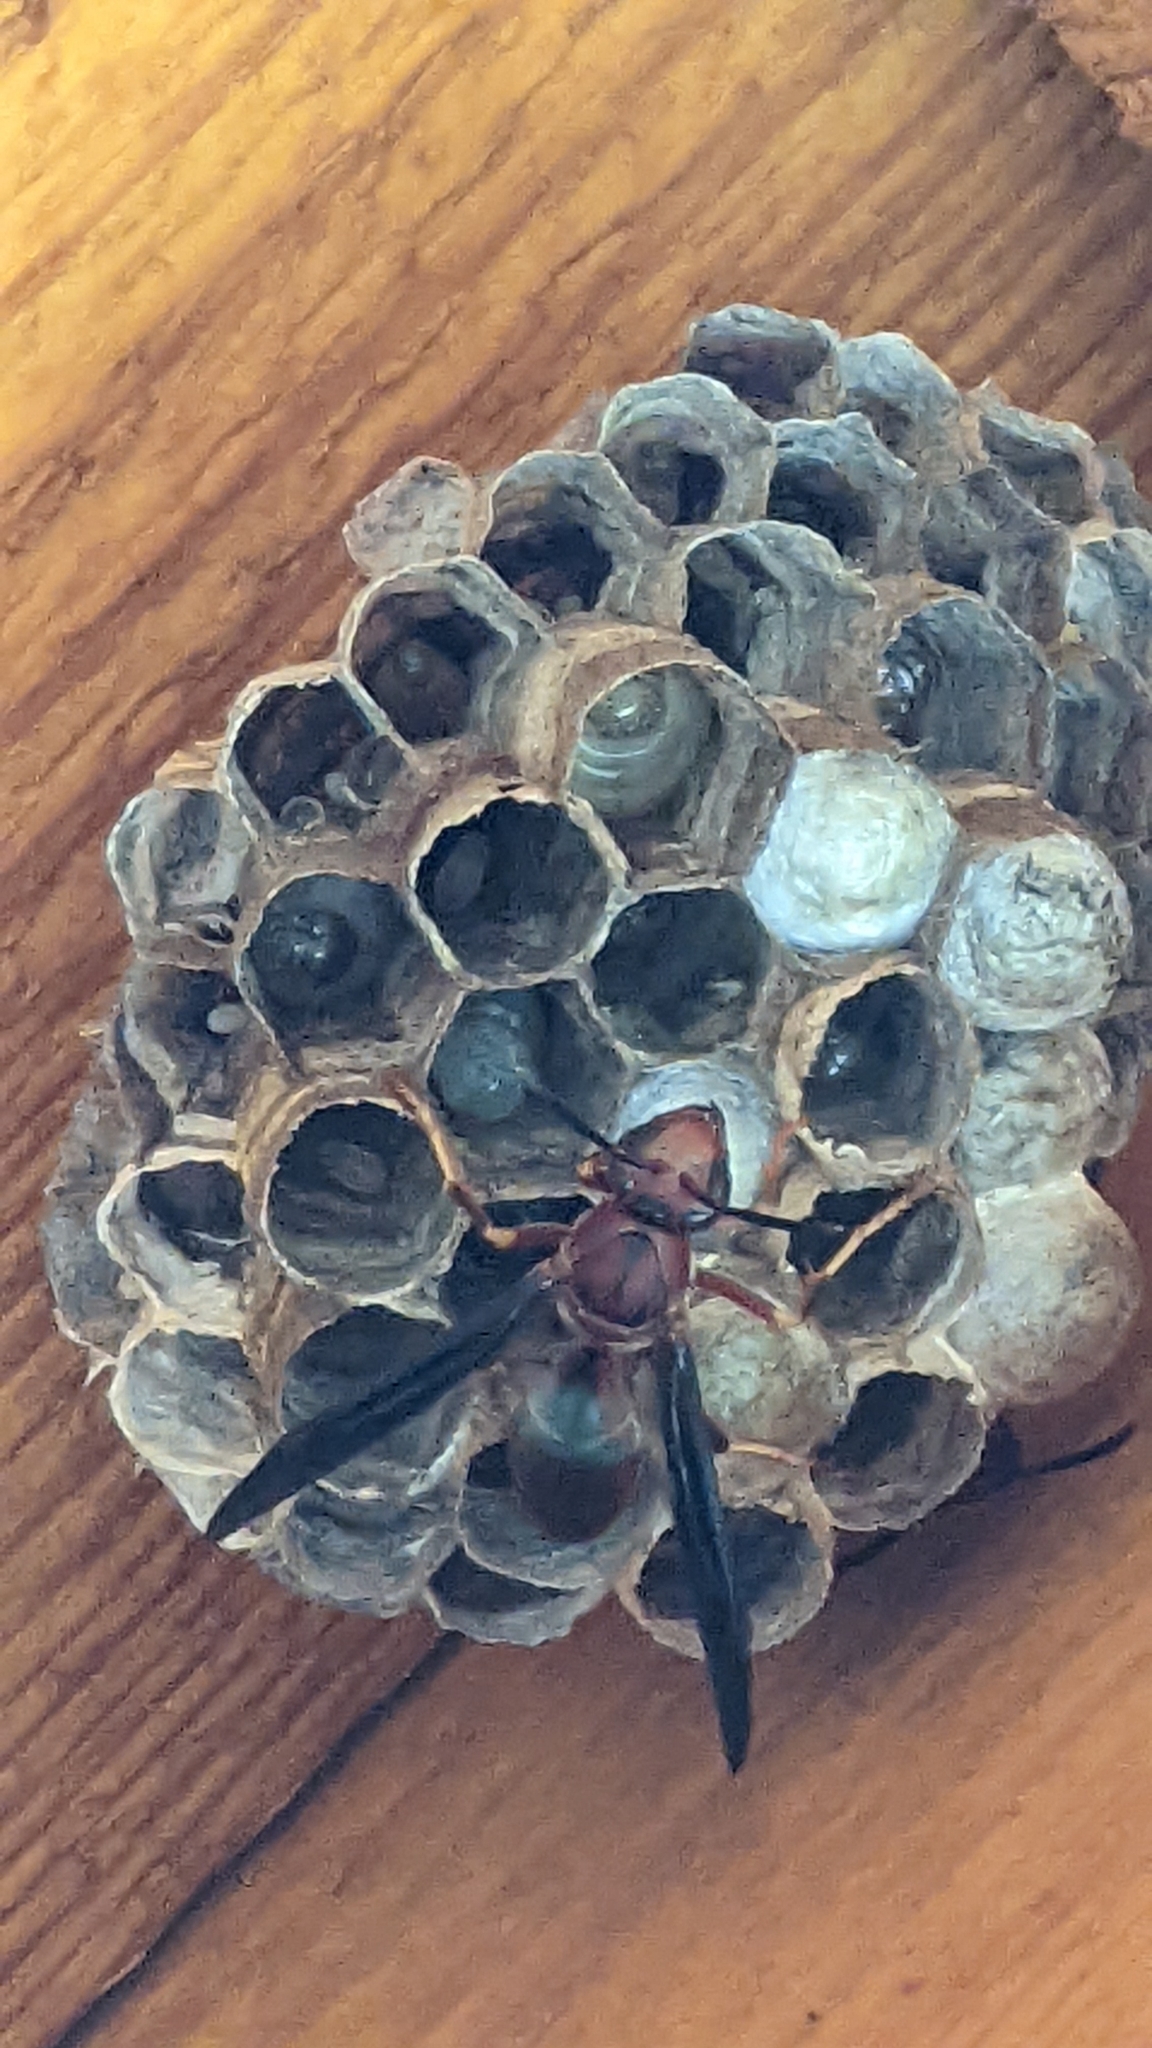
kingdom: Animalia
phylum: Arthropoda
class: Insecta
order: Hymenoptera
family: Eumenidae
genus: Polistes
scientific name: Polistes metricus
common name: Metric paper wasp
